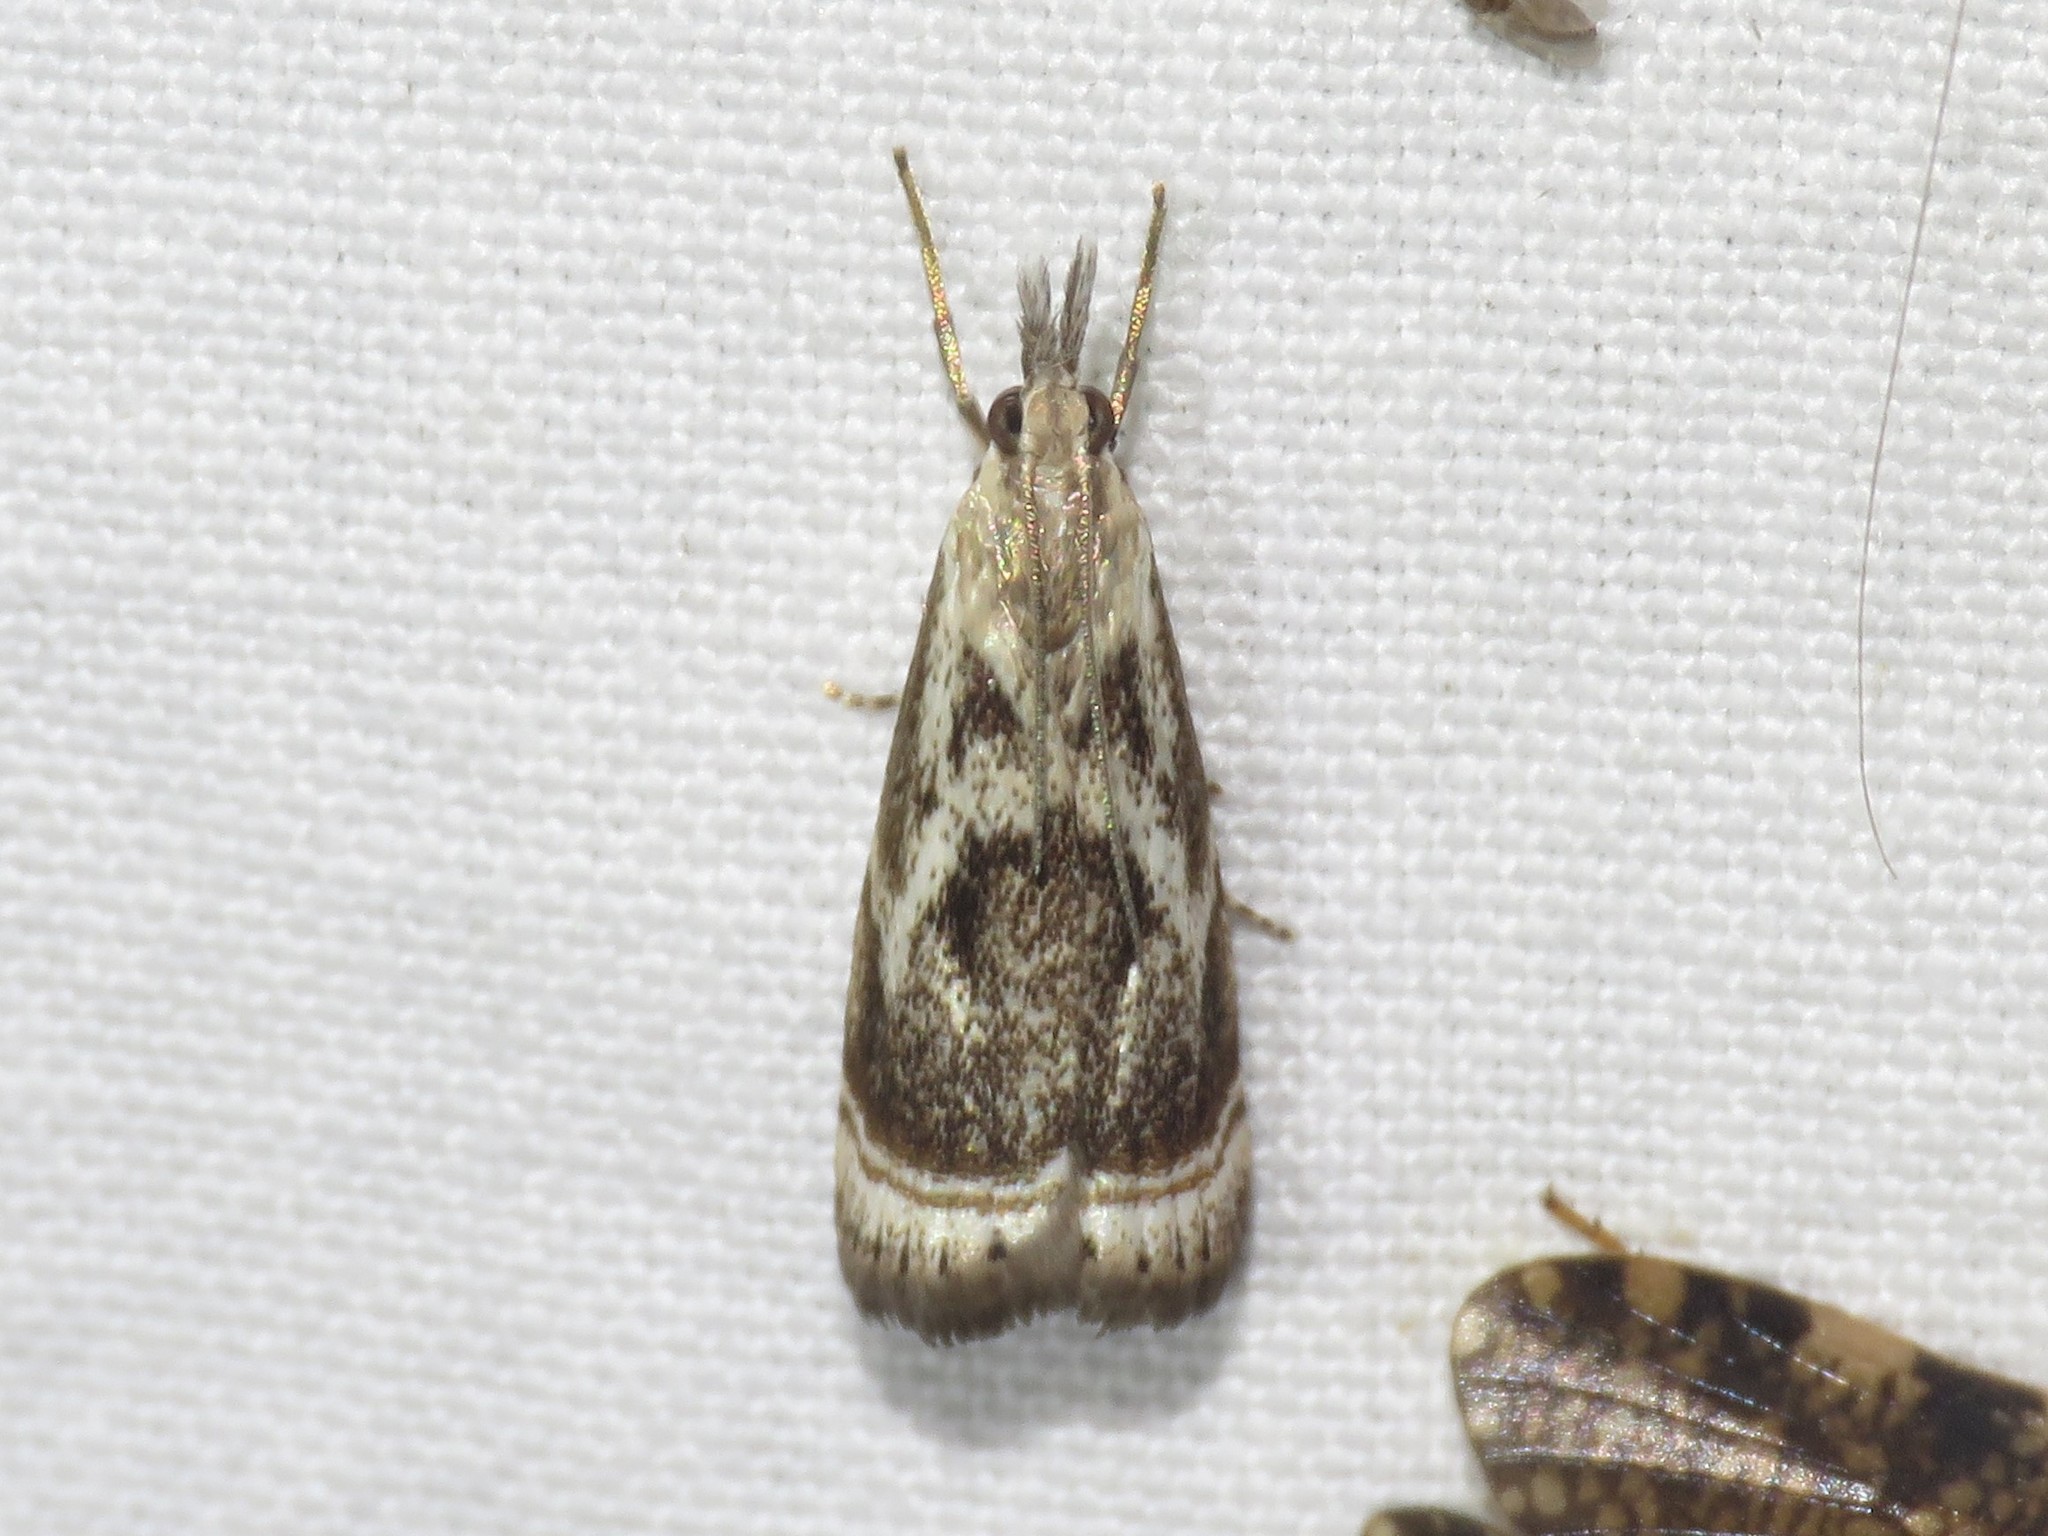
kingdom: Animalia
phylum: Arthropoda
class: Insecta
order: Lepidoptera
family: Crambidae
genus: Microcrambus
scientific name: Microcrambus elegans
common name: Elegant grass-veneer
